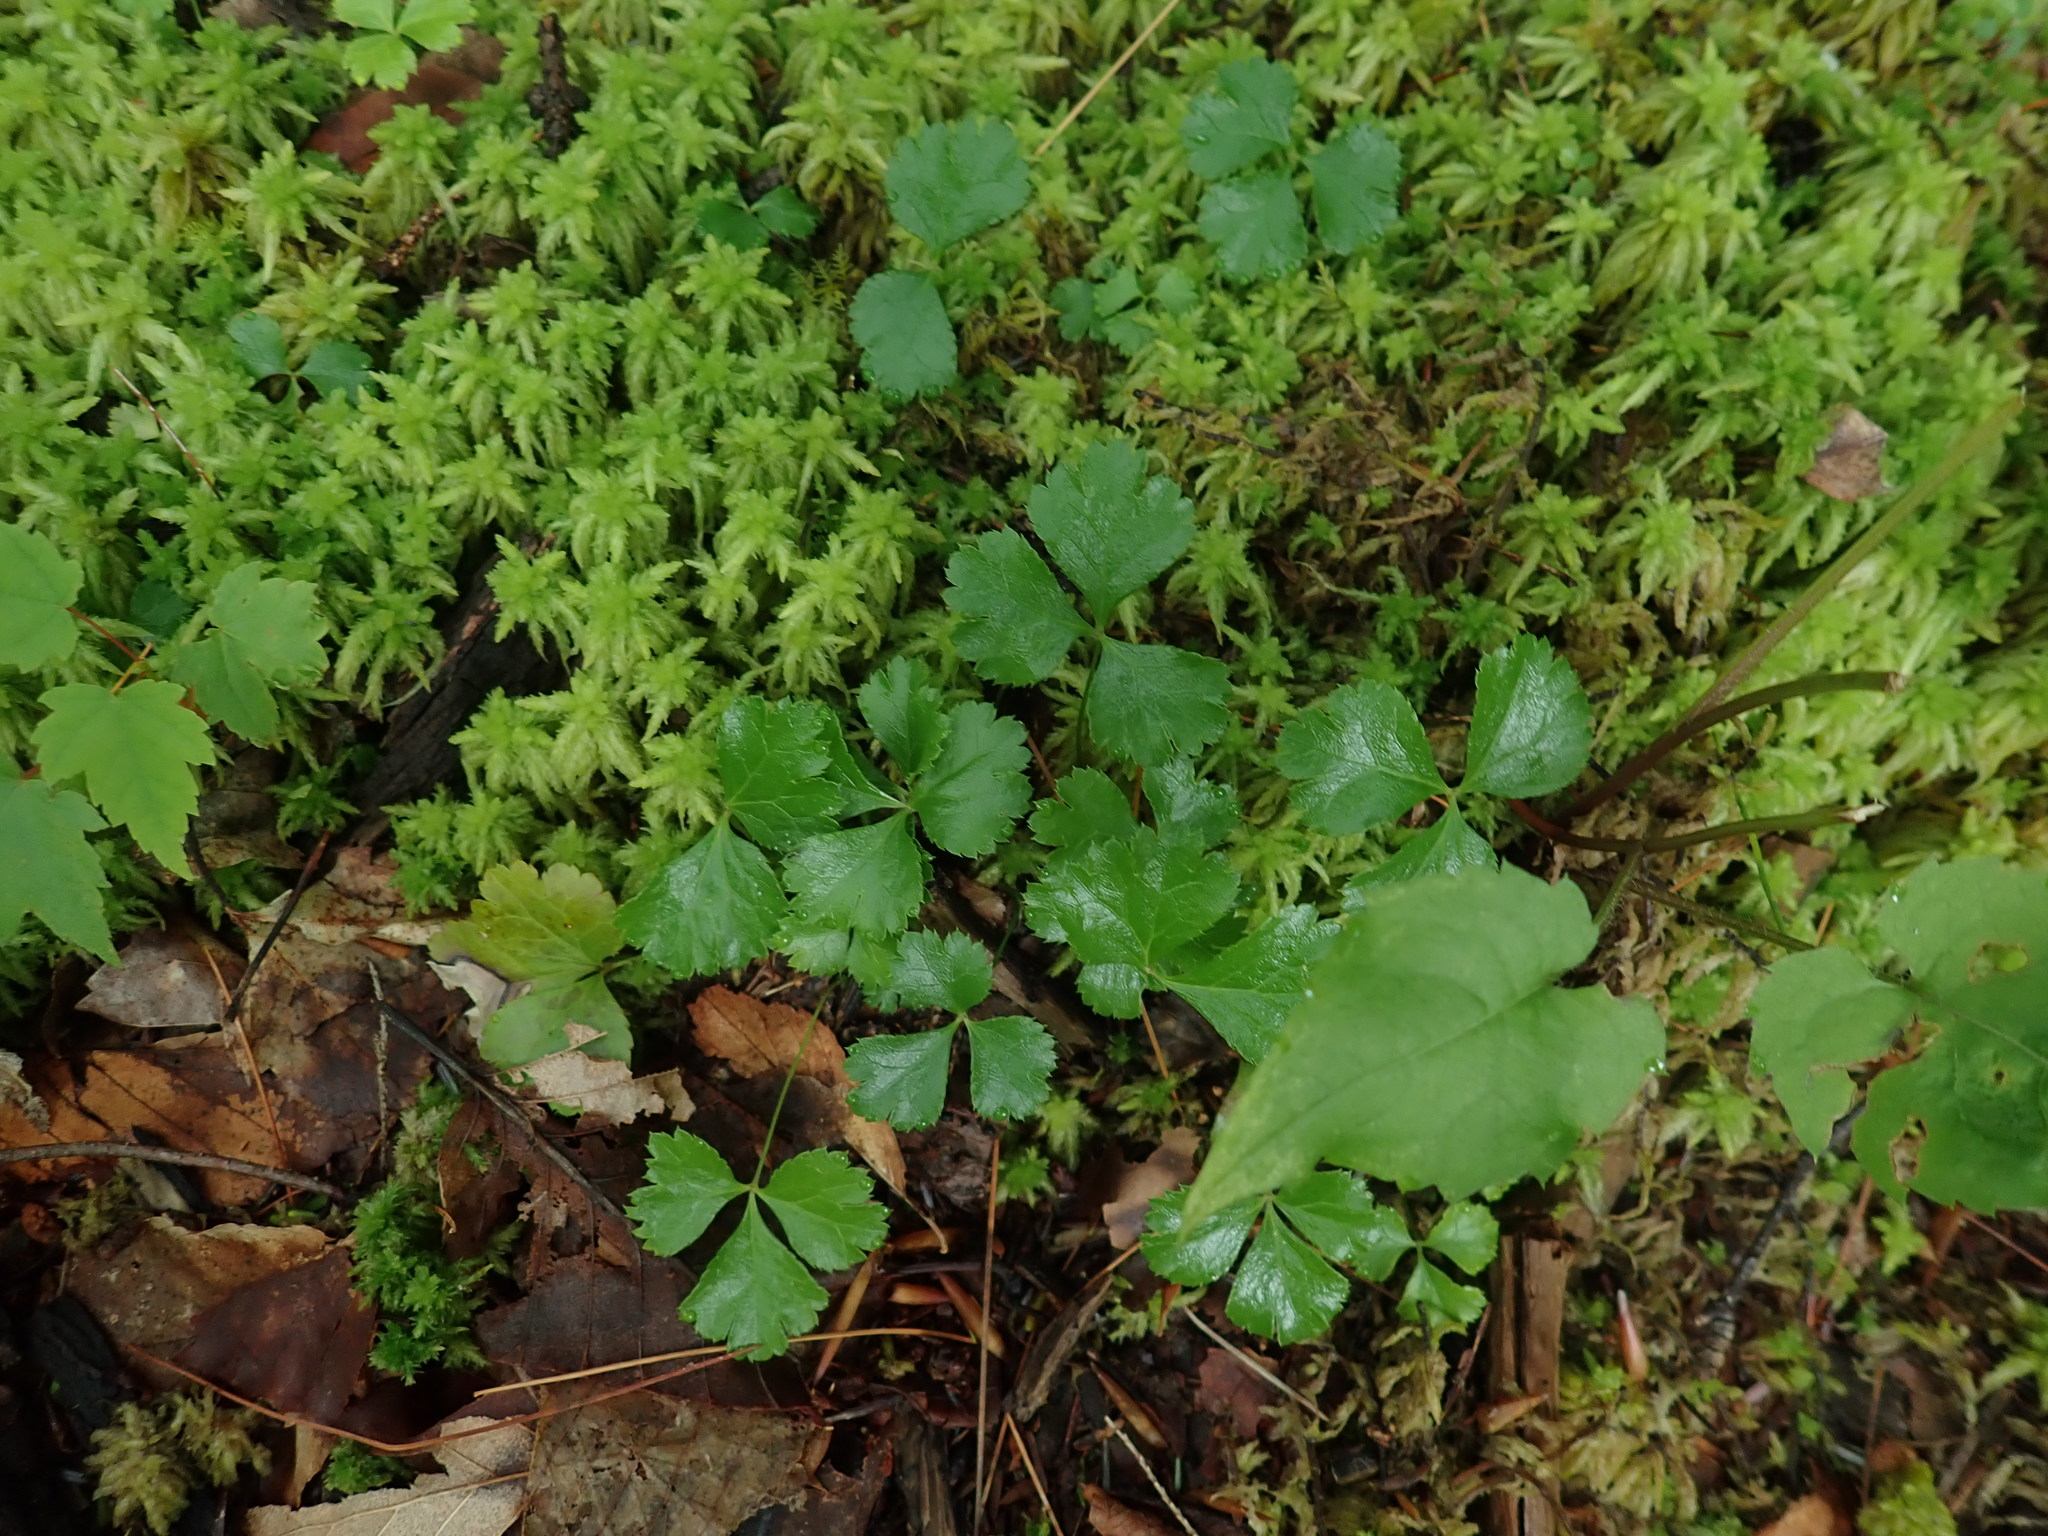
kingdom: Plantae
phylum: Tracheophyta
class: Magnoliopsida
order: Ranunculales
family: Ranunculaceae
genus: Coptis
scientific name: Coptis trifolia
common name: Canker-root
